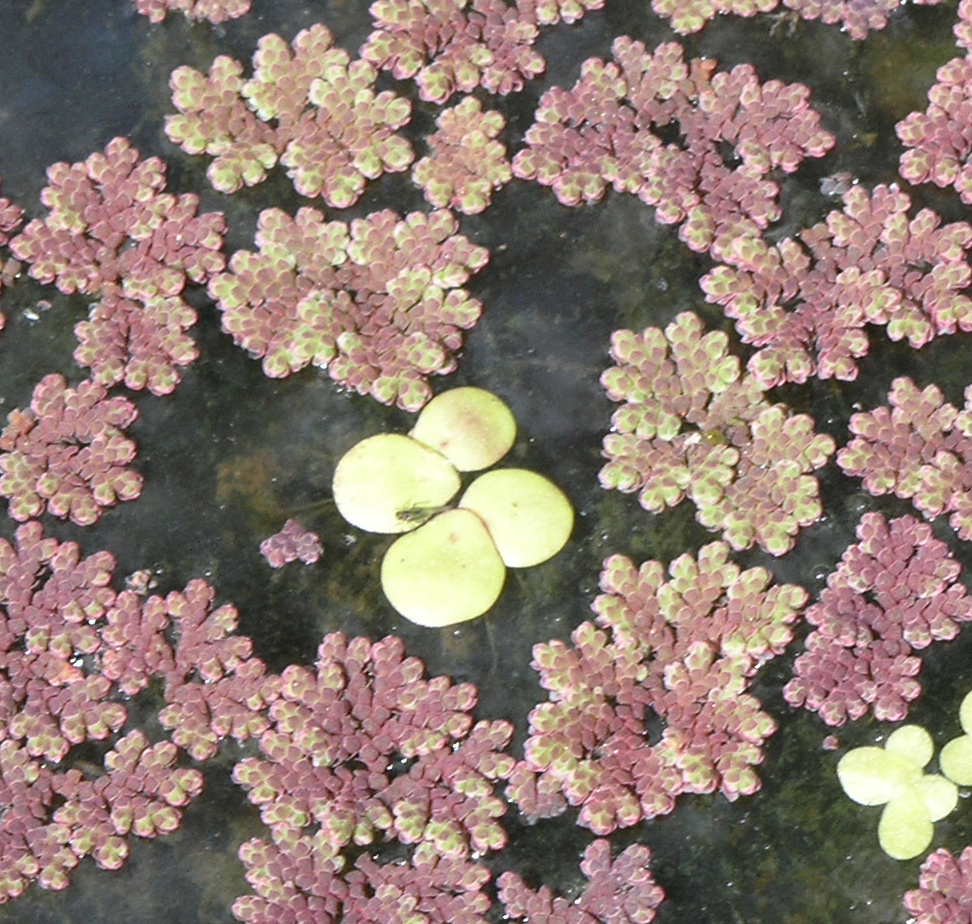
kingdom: Plantae
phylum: Tracheophyta
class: Liliopsida
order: Alismatales
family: Araceae
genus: Spirodela
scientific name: Spirodela polyrhiza
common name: Great duckweed
